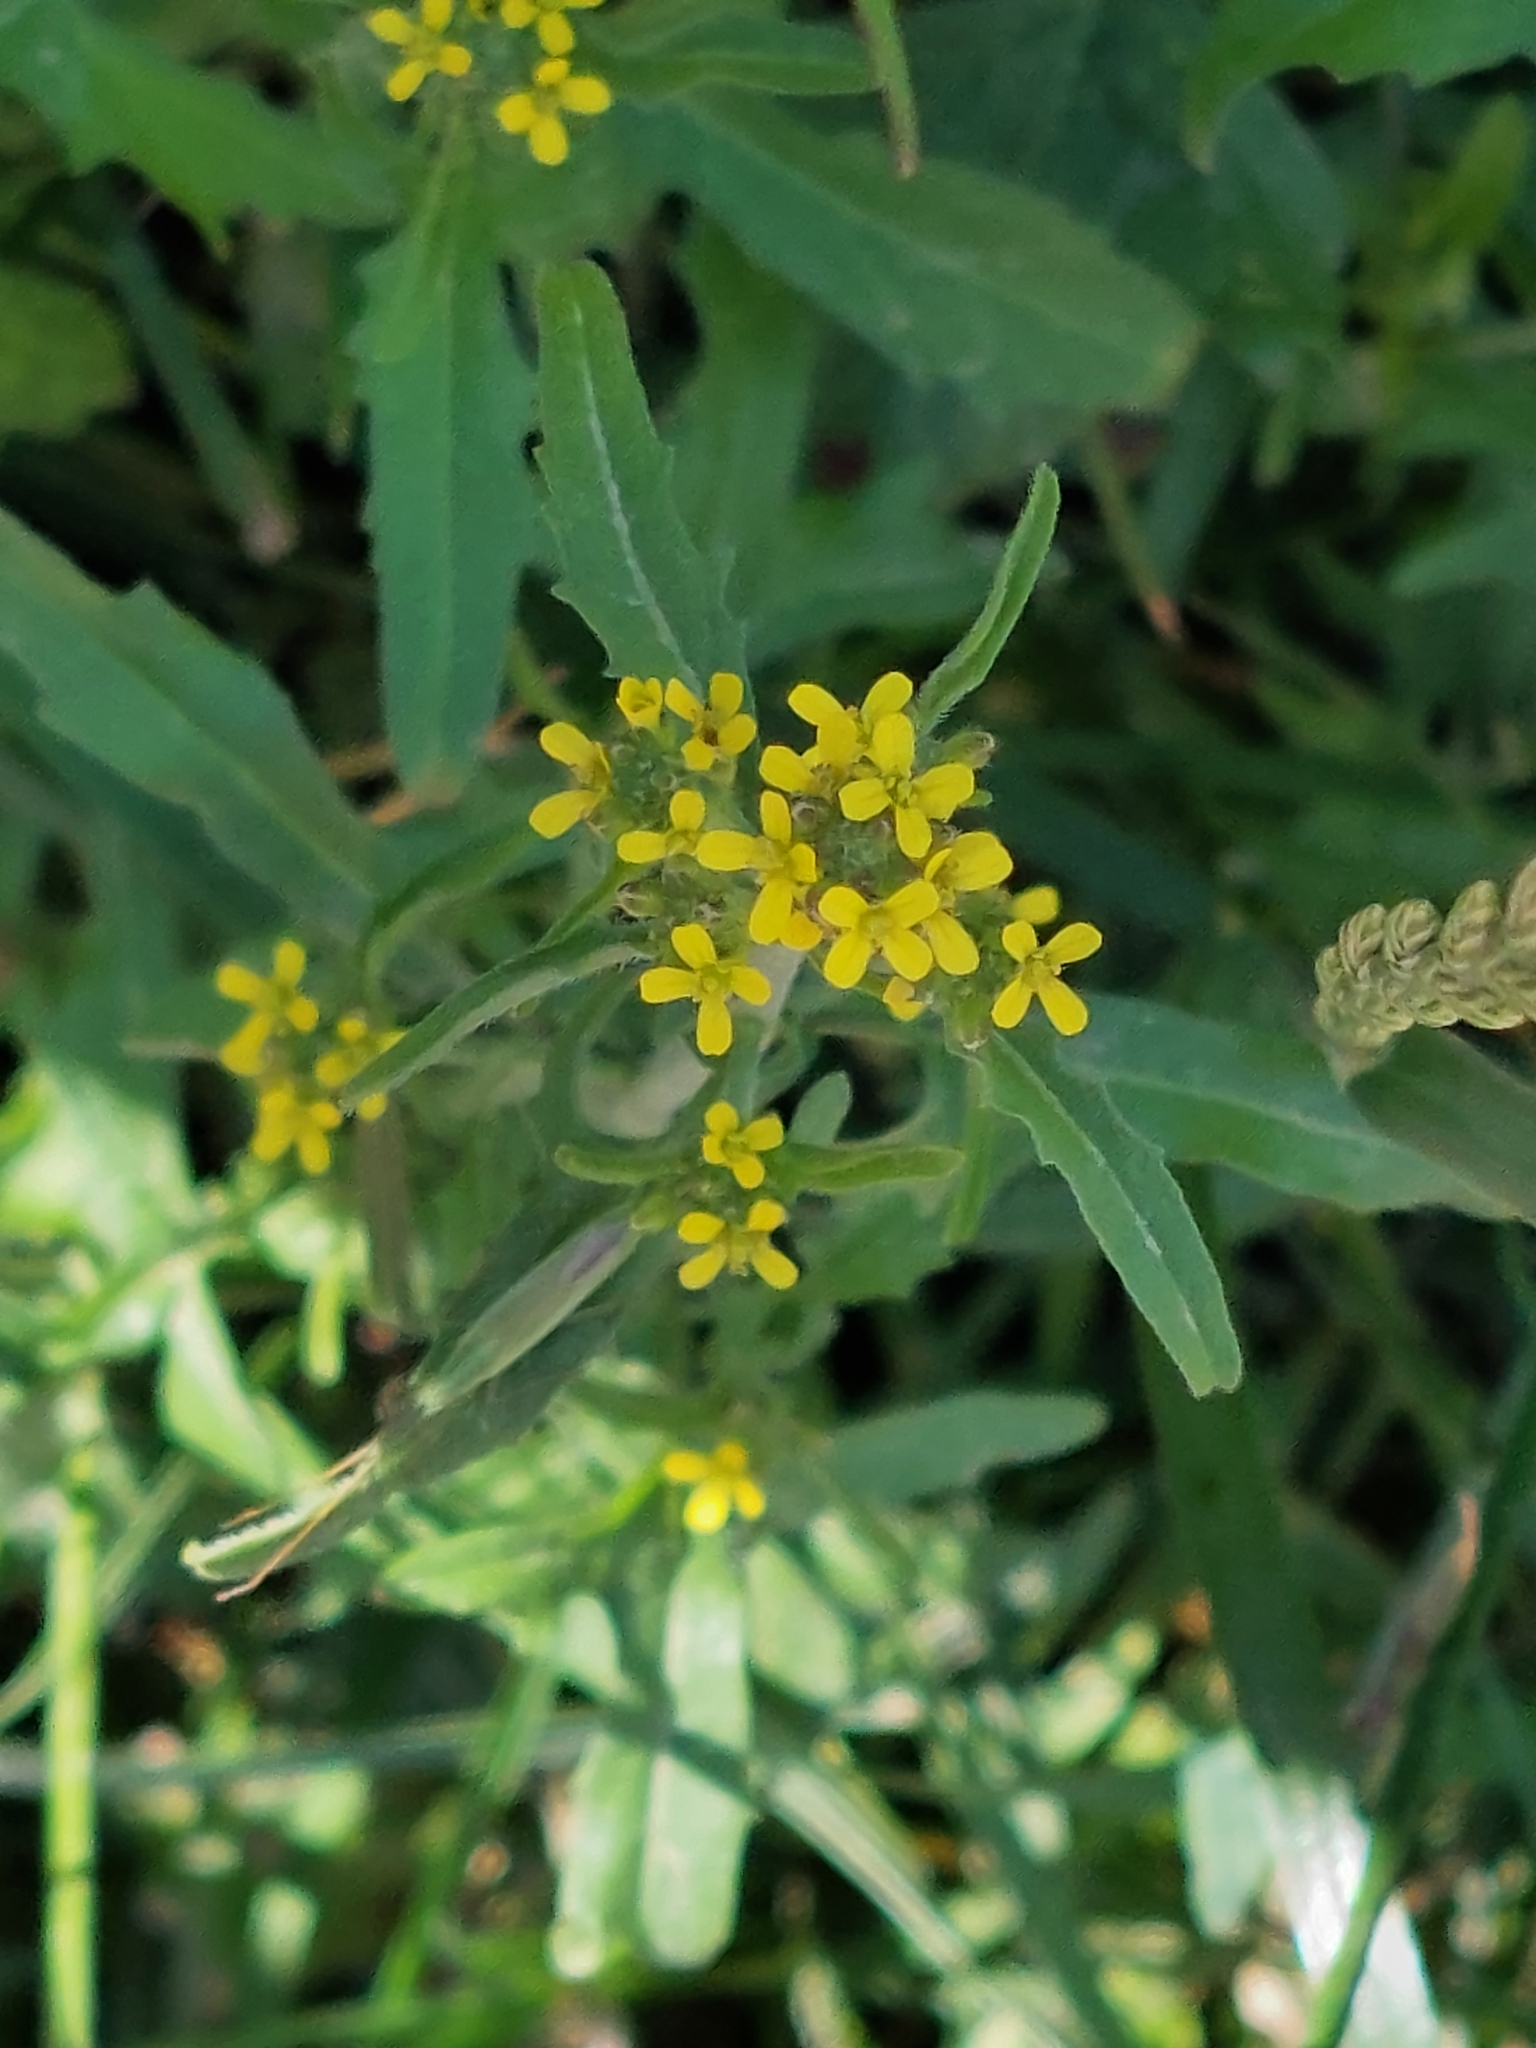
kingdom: Plantae
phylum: Tracheophyta
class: Magnoliopsida
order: Brassicales
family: Brassicaceae
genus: Sisymbrium
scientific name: Sisymbrium officinale
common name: Hedge mustard
